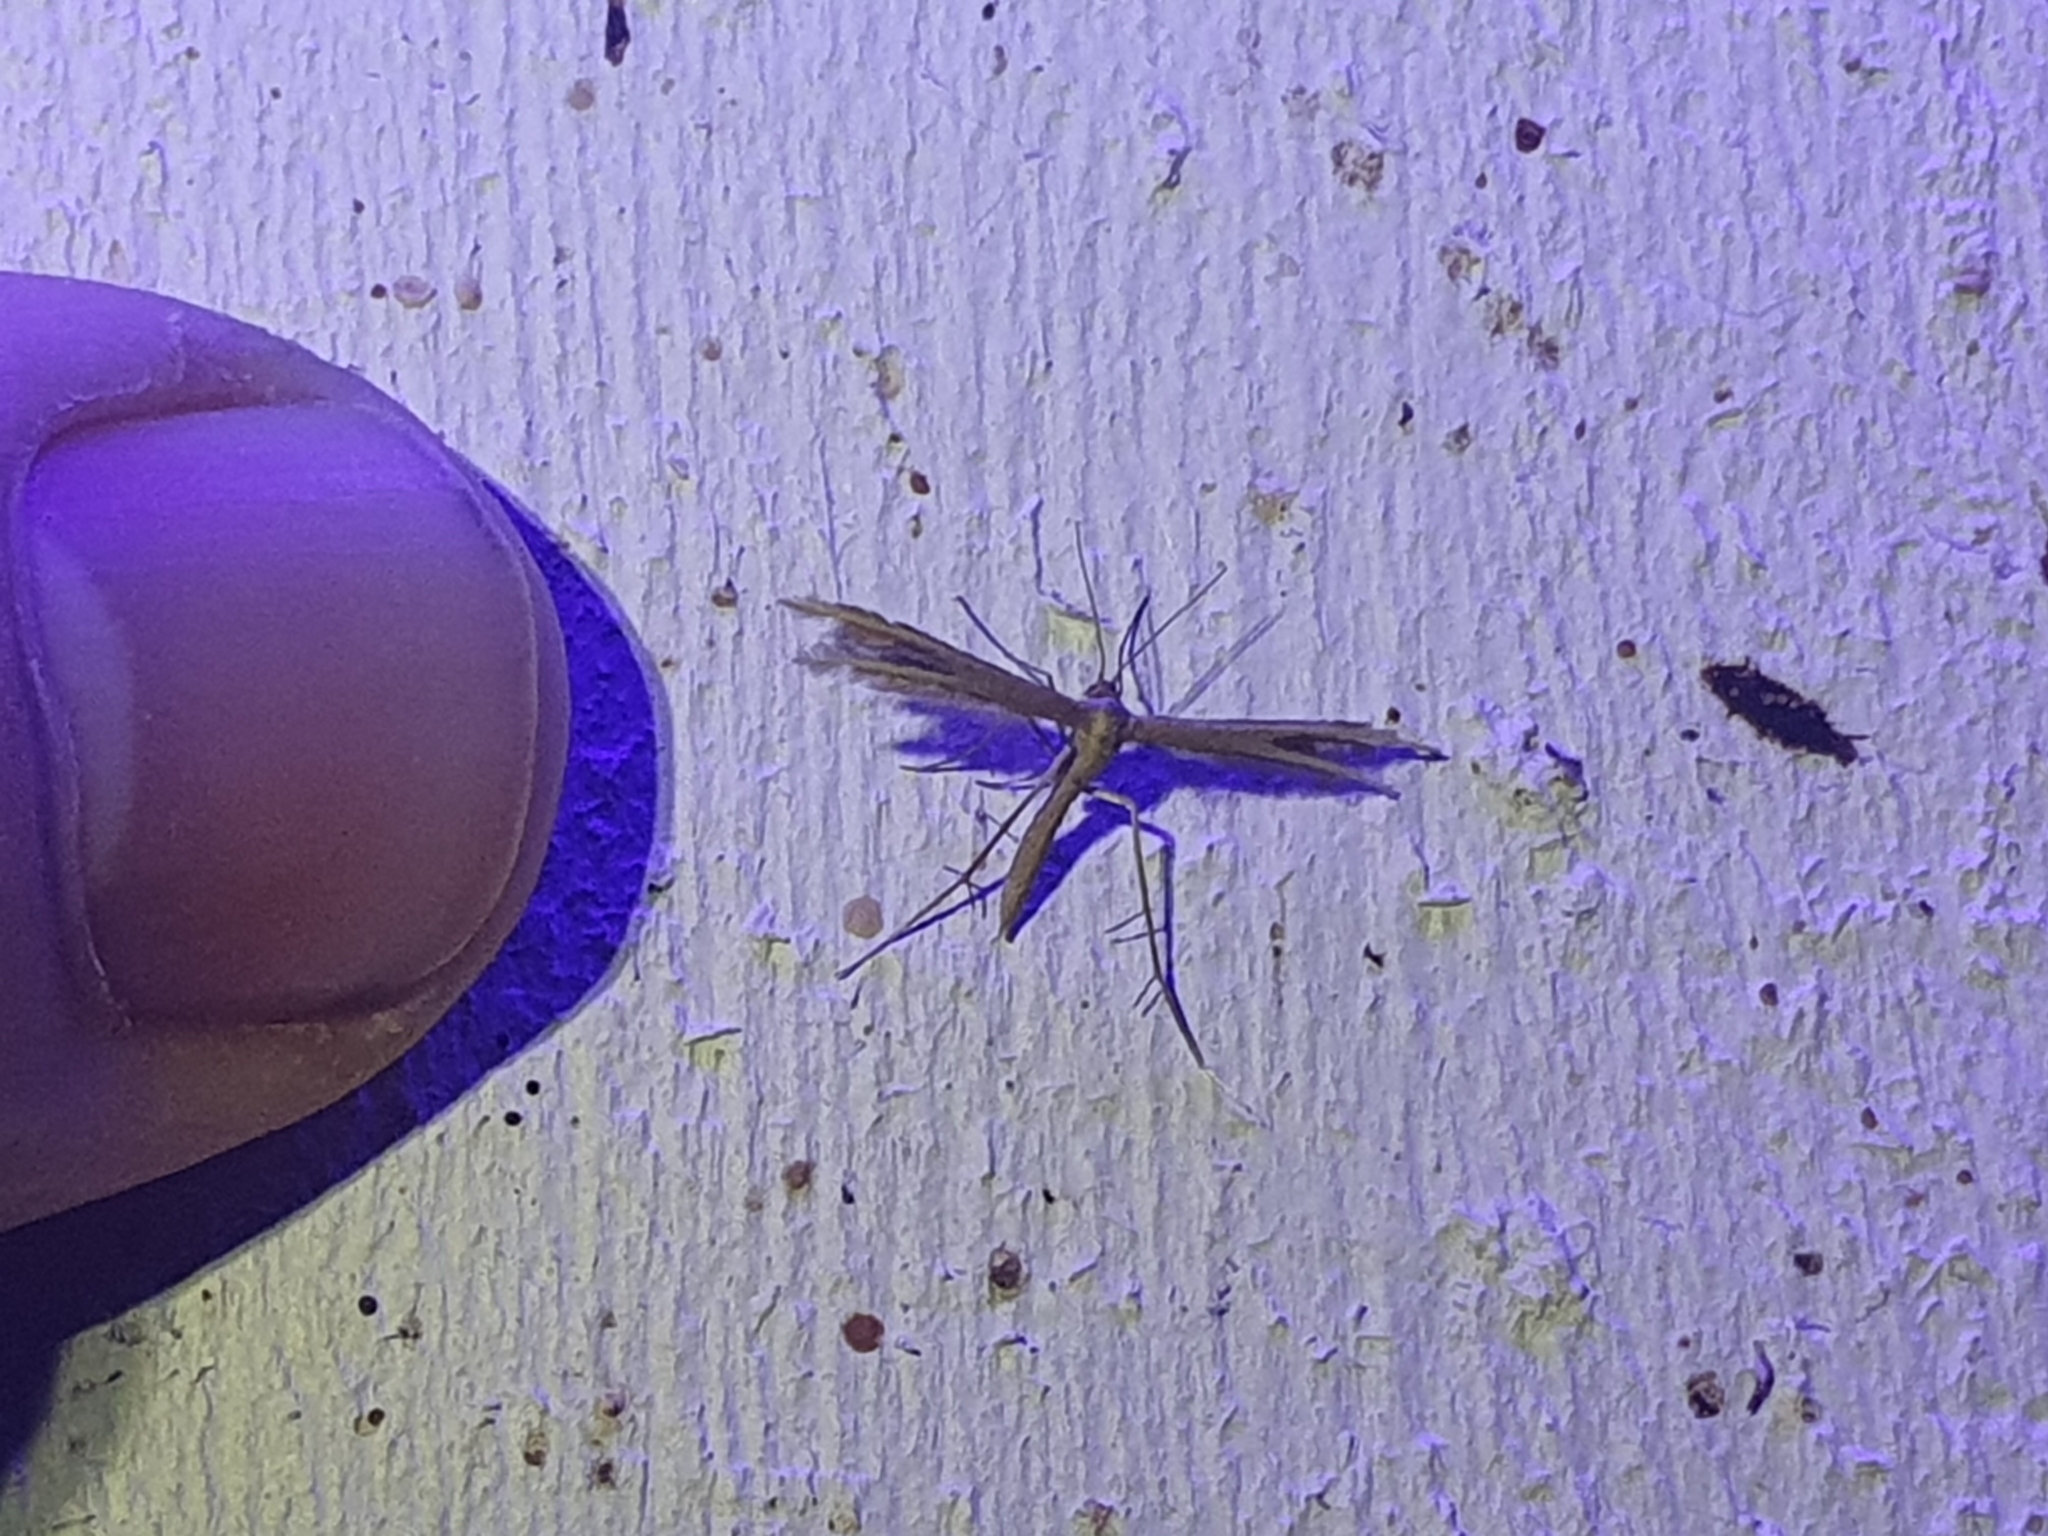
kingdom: Animalia
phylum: Arthropoda
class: Insecta
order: Lepidoptera
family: Pterophoridae
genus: Pterophorus
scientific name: Pterophorus innotatalis
